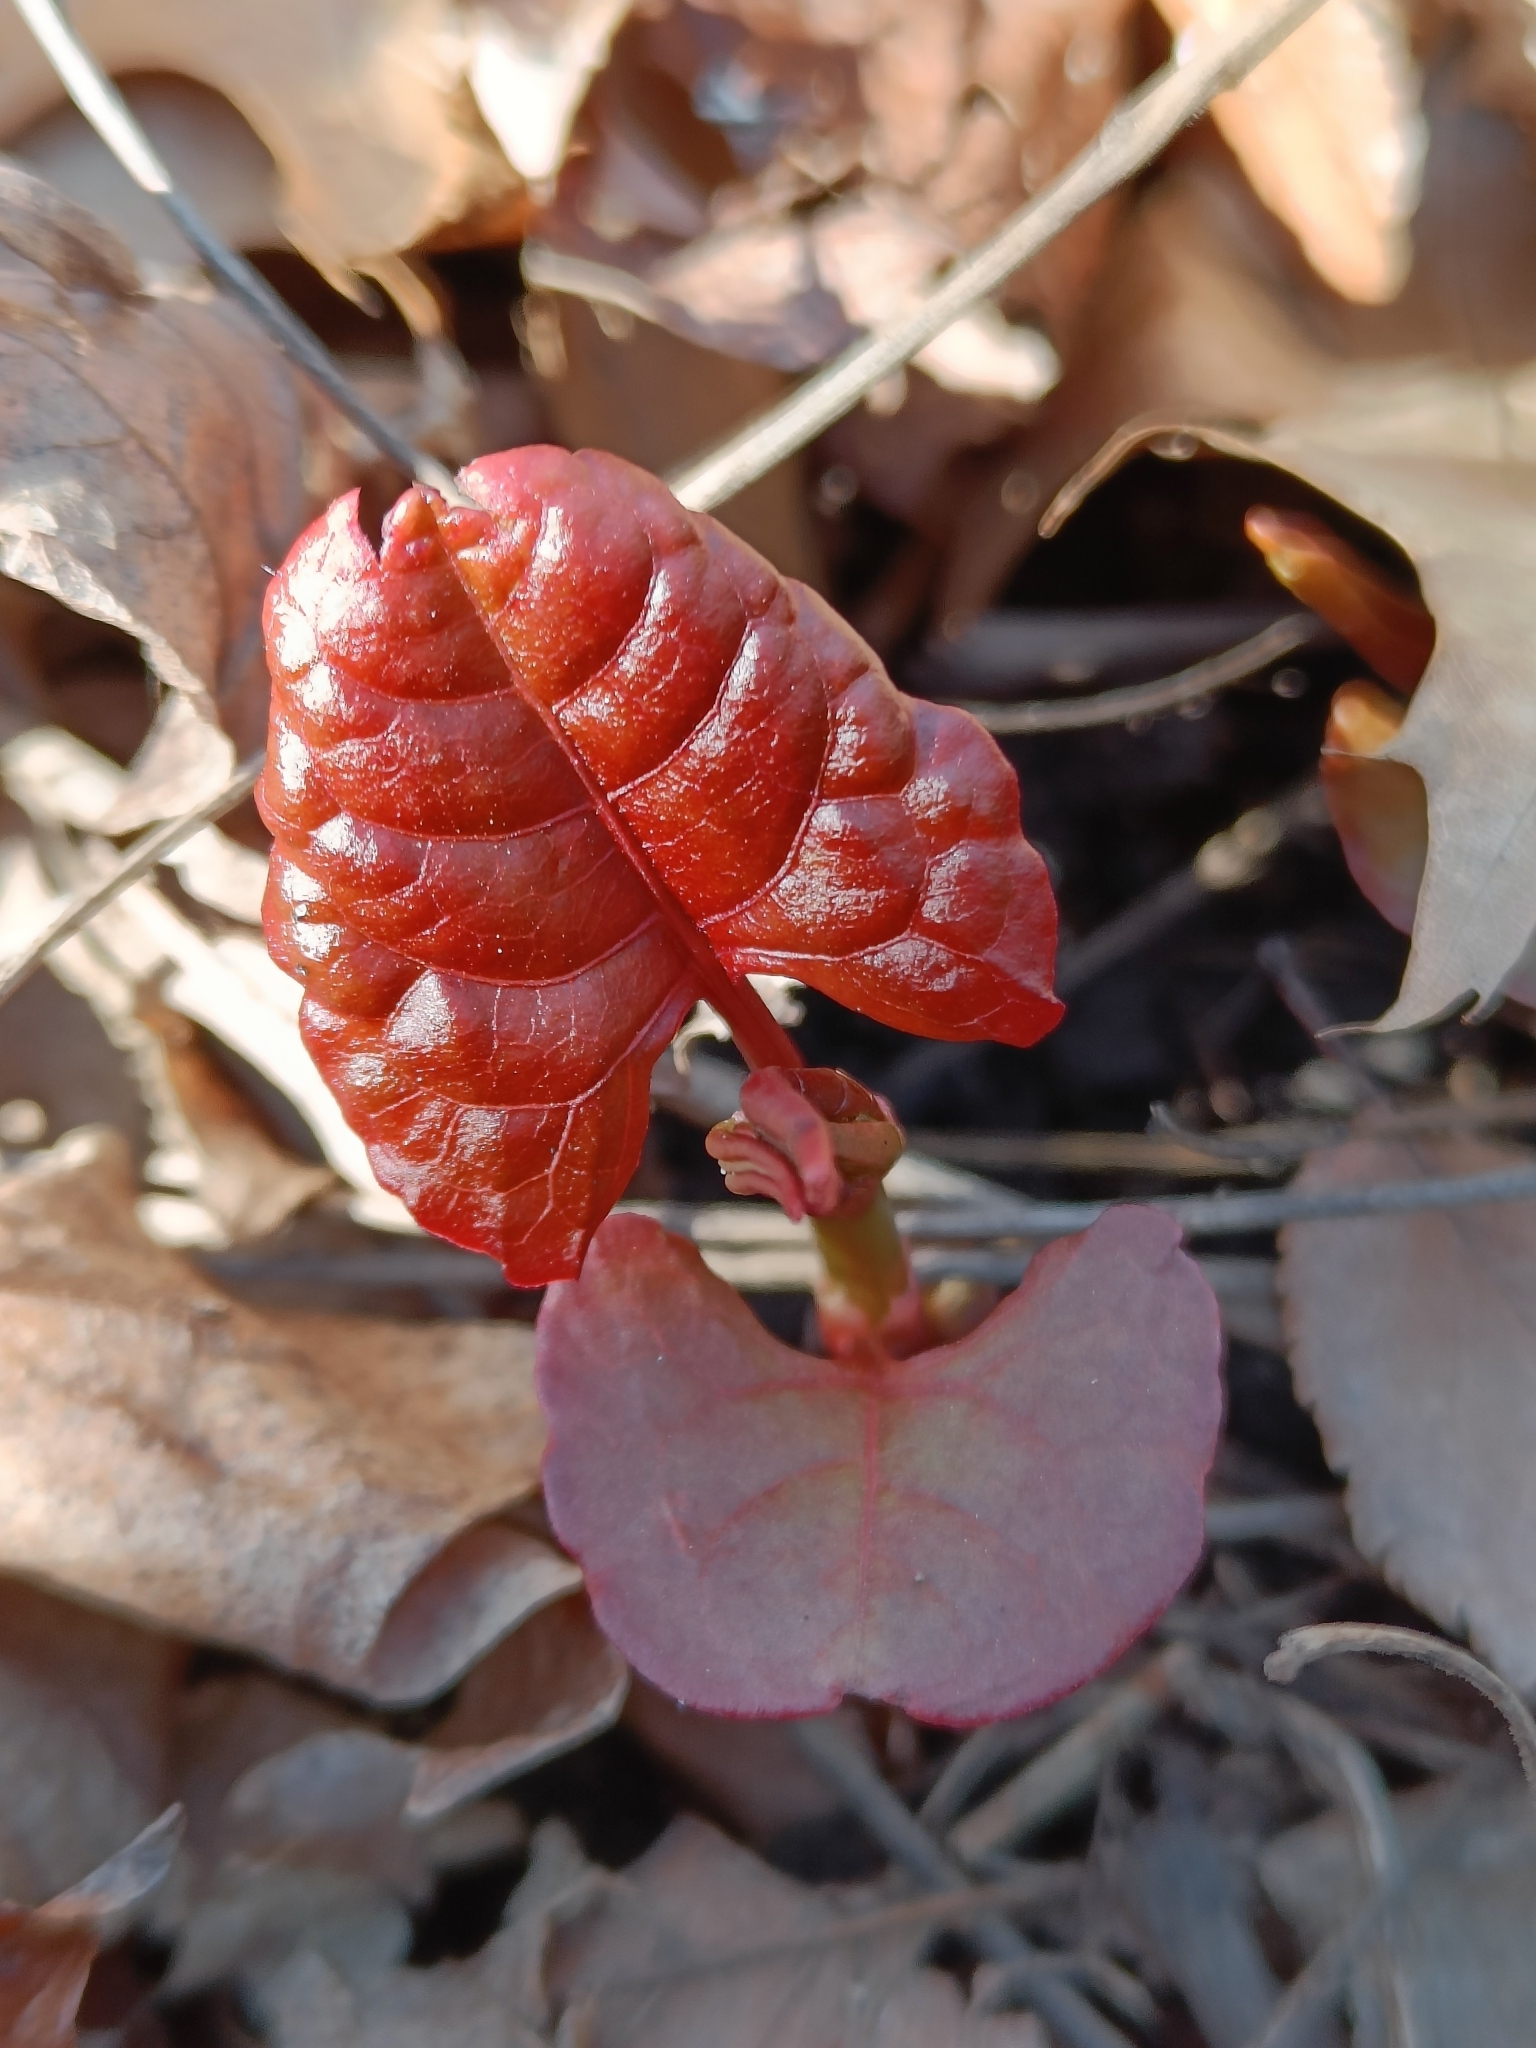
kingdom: Plantae
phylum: Tracheophyta
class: Magnoliopsida
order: Caryophyllales
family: Polygonaceae
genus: Reynoutria
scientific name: Reynoutria japonica
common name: Japanese knotweed
